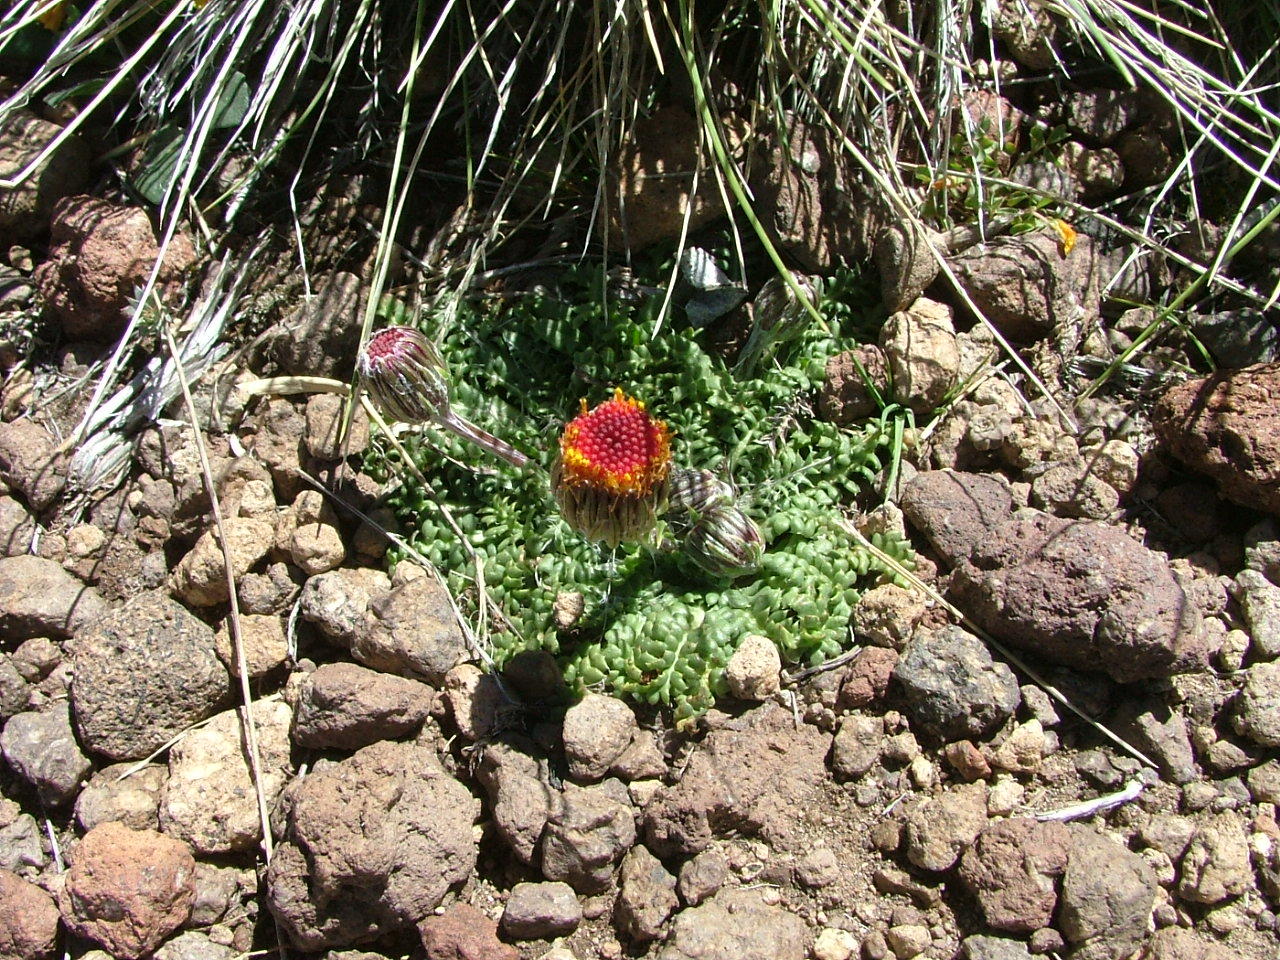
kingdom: Plantae
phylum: Tracheophyta
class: Magnoliopsida
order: Asterales
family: Asteraceae
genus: Senecio
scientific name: Senecio asplenifolius
